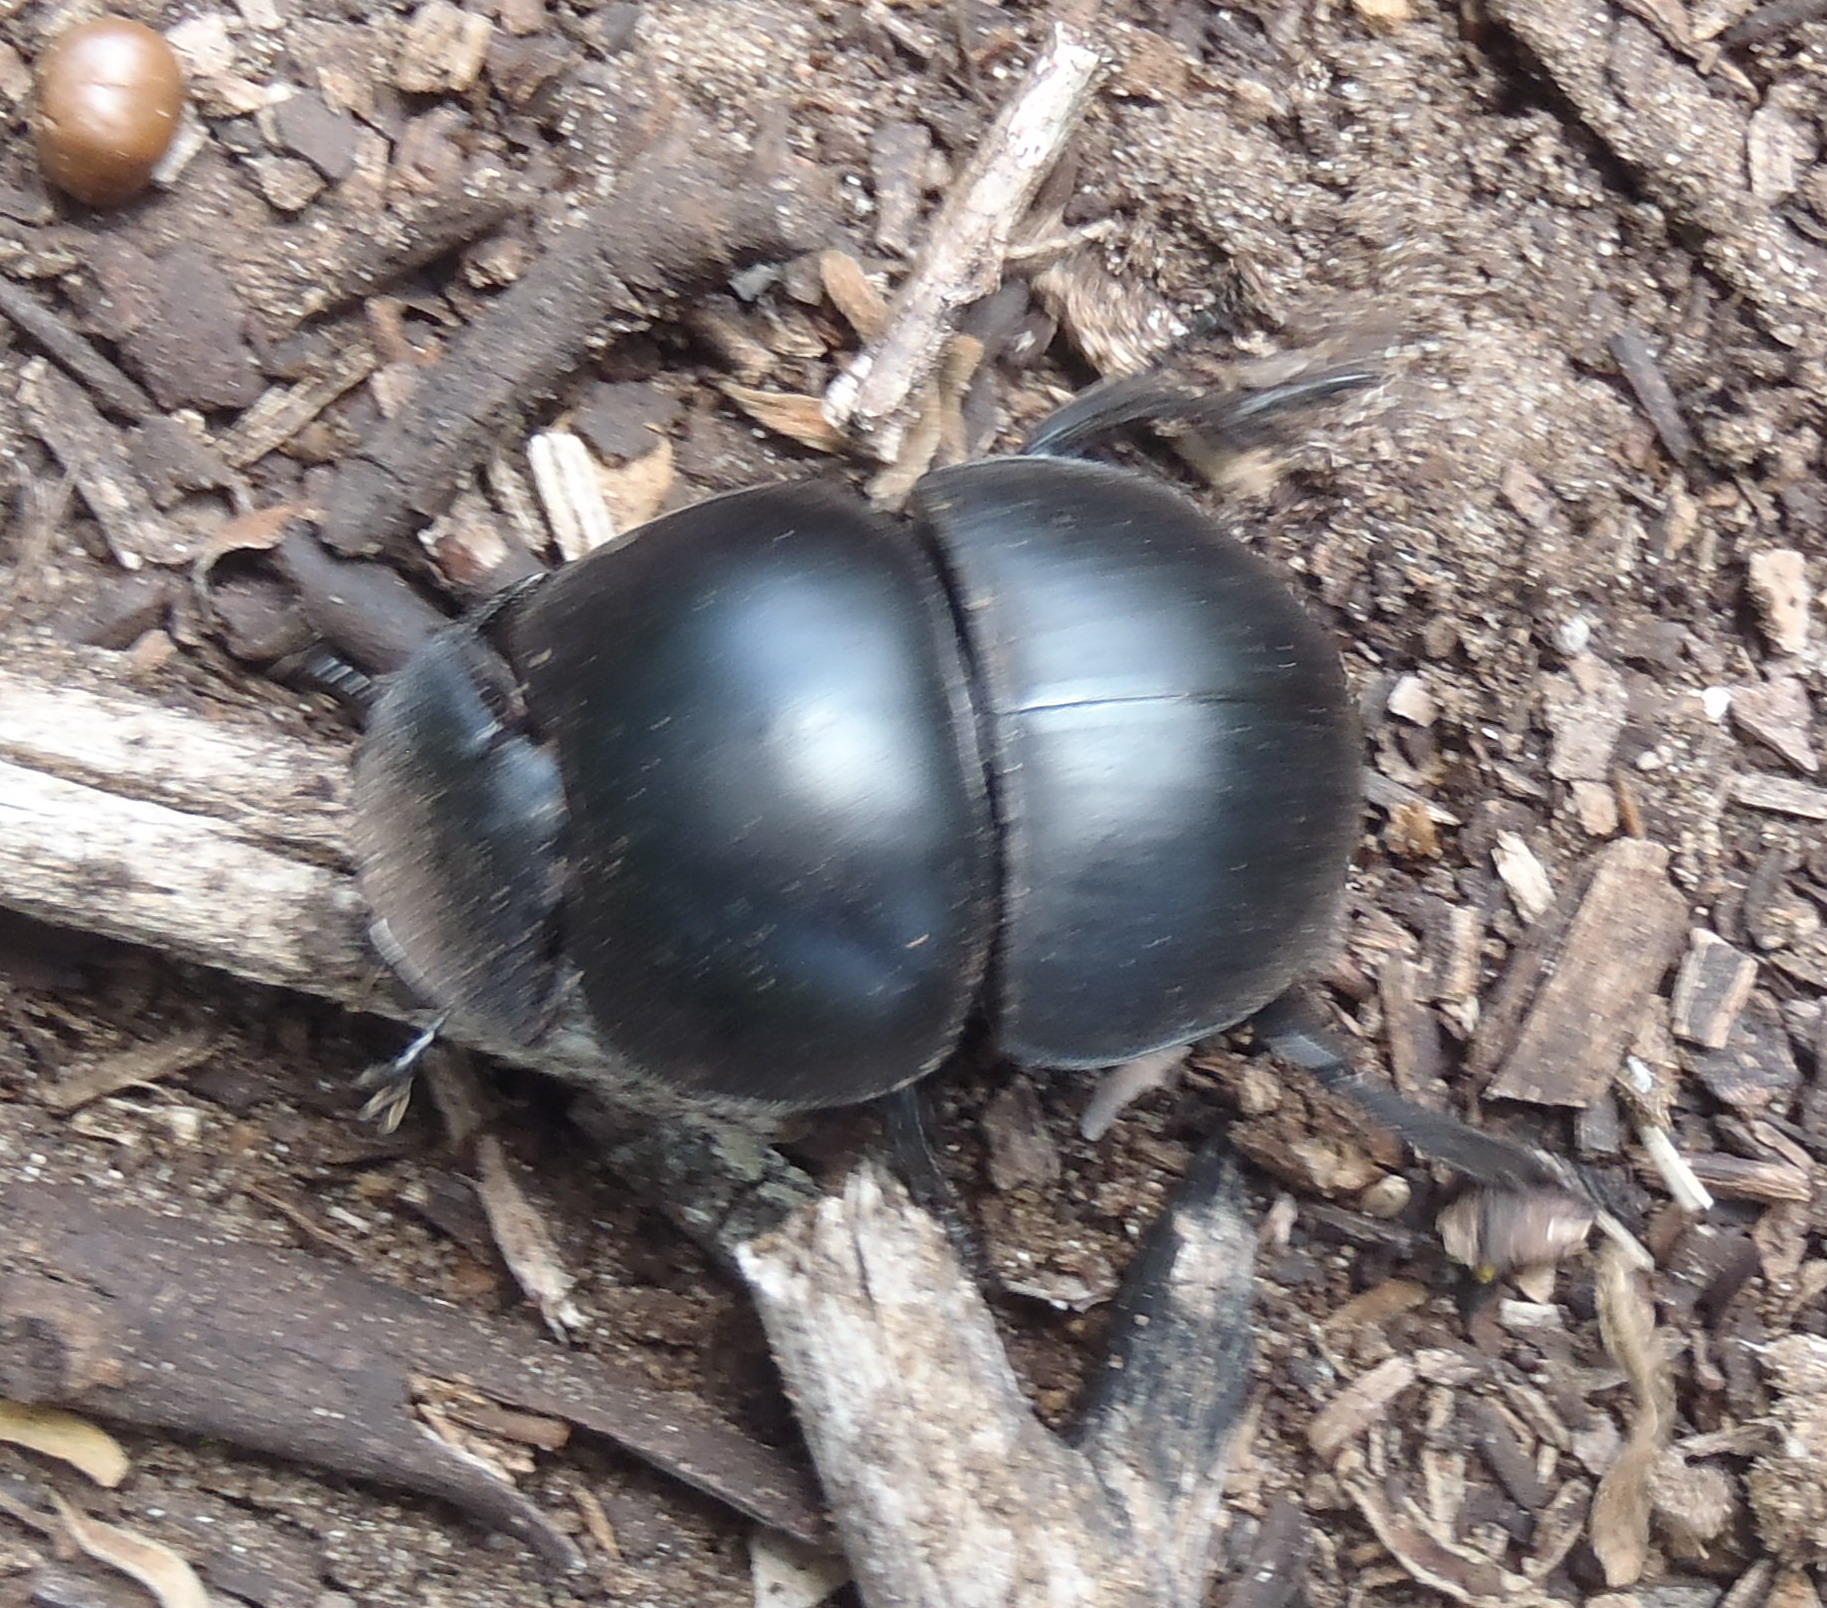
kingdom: Animalia
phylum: Arthropoda
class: Insecta
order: Coleoptera
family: Scarabaeidae
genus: Circellium
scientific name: Circellium bacchus
